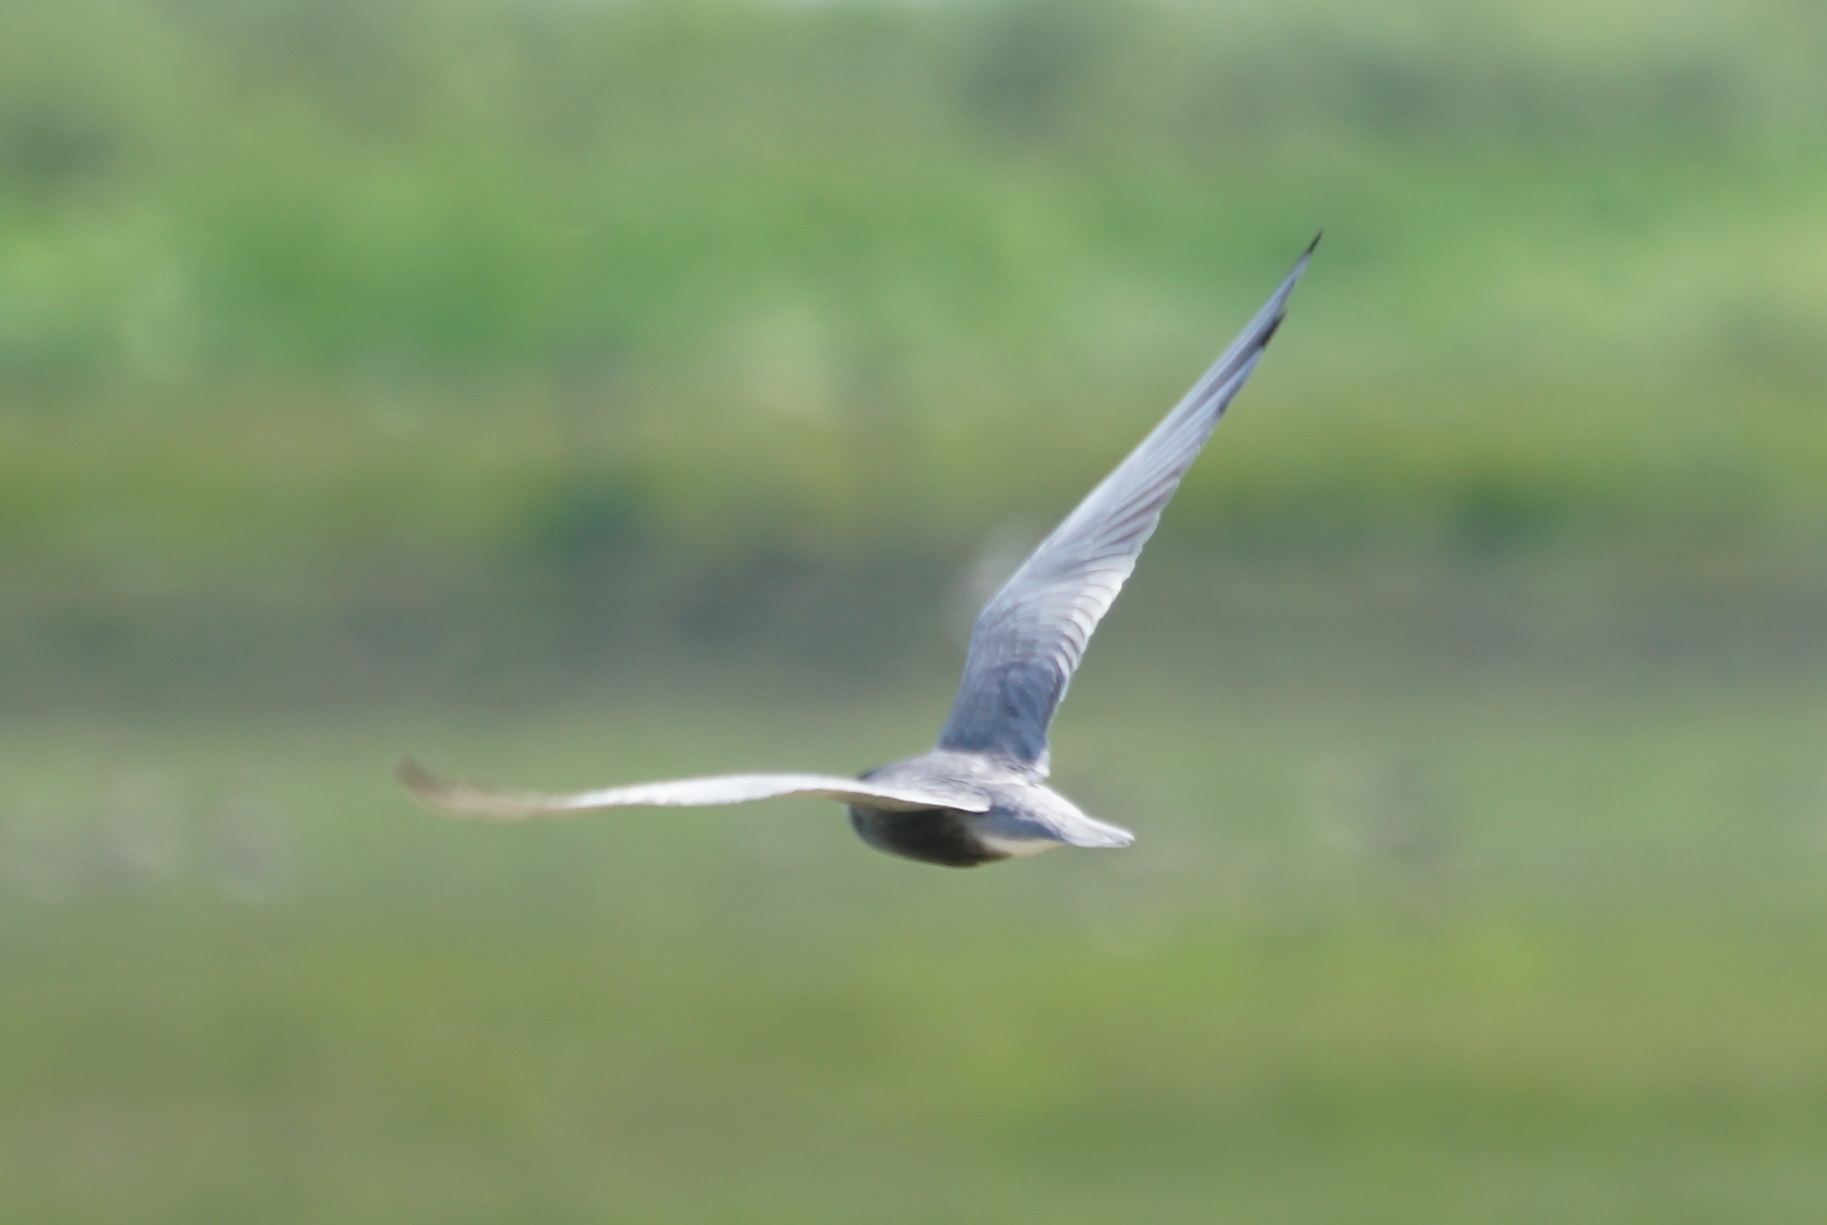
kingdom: Animalia
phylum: Chordata
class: Aves
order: Charadriiformes
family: Laridae
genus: Chlidonias
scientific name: Chlidonias niger
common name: Black tern
